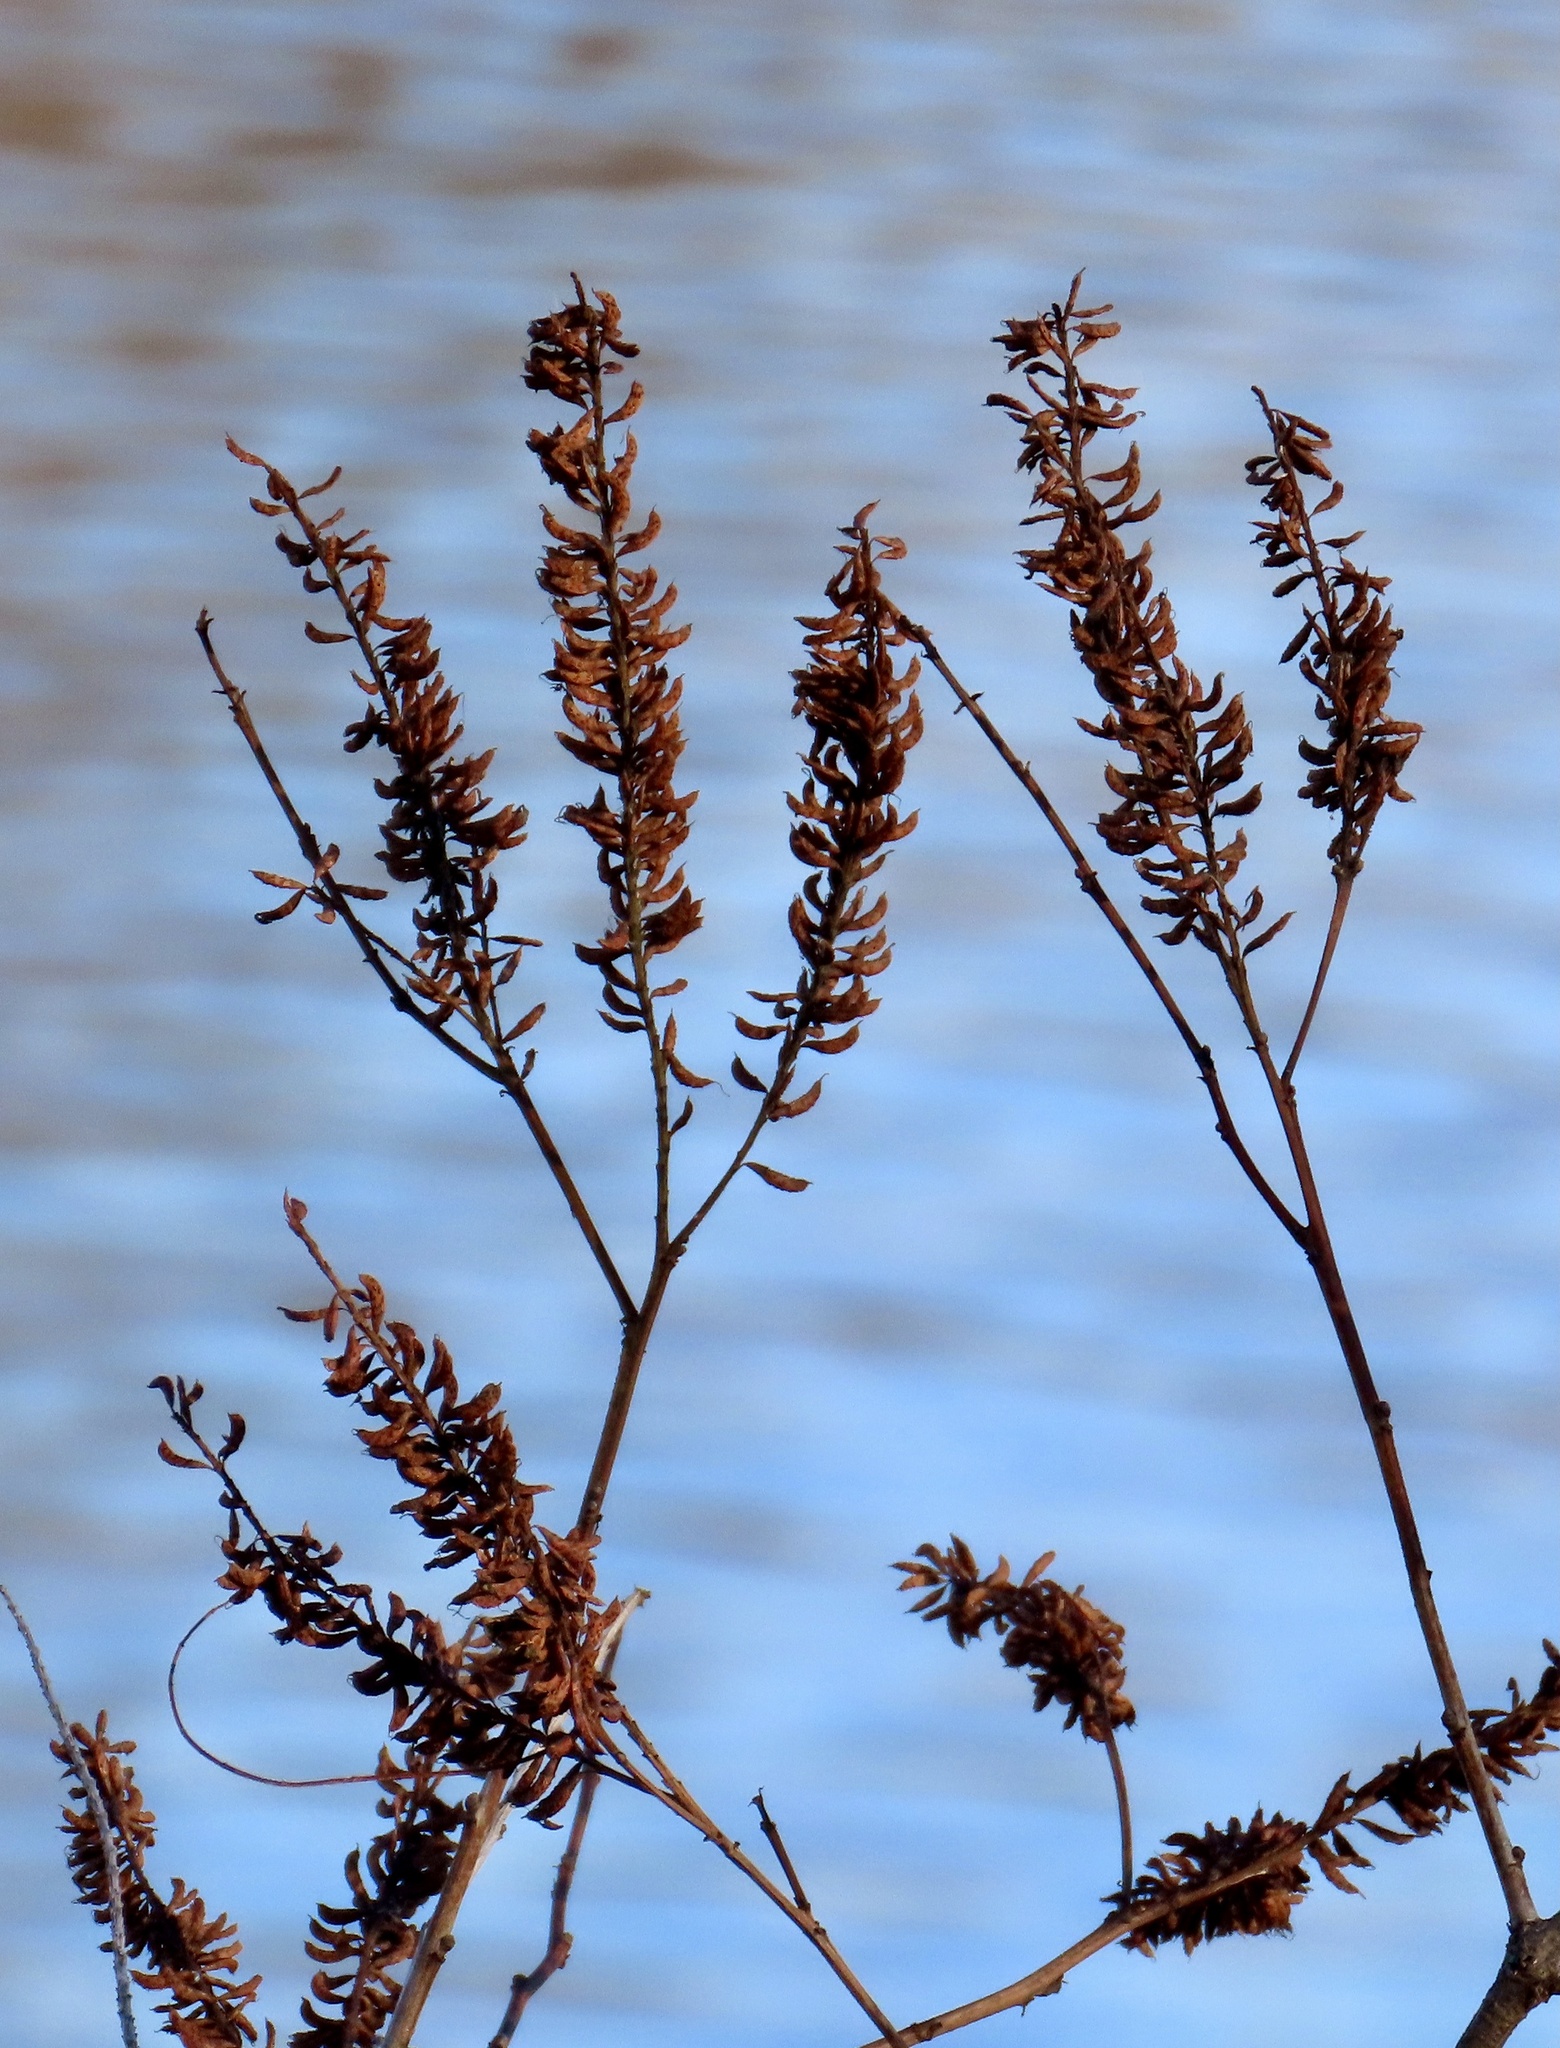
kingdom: Plantae
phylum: Tracheophyta
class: Magnoliopsida
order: Fabales
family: Fabaceae
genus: Amorpha
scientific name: Amorpha fruticosa
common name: False indigo
